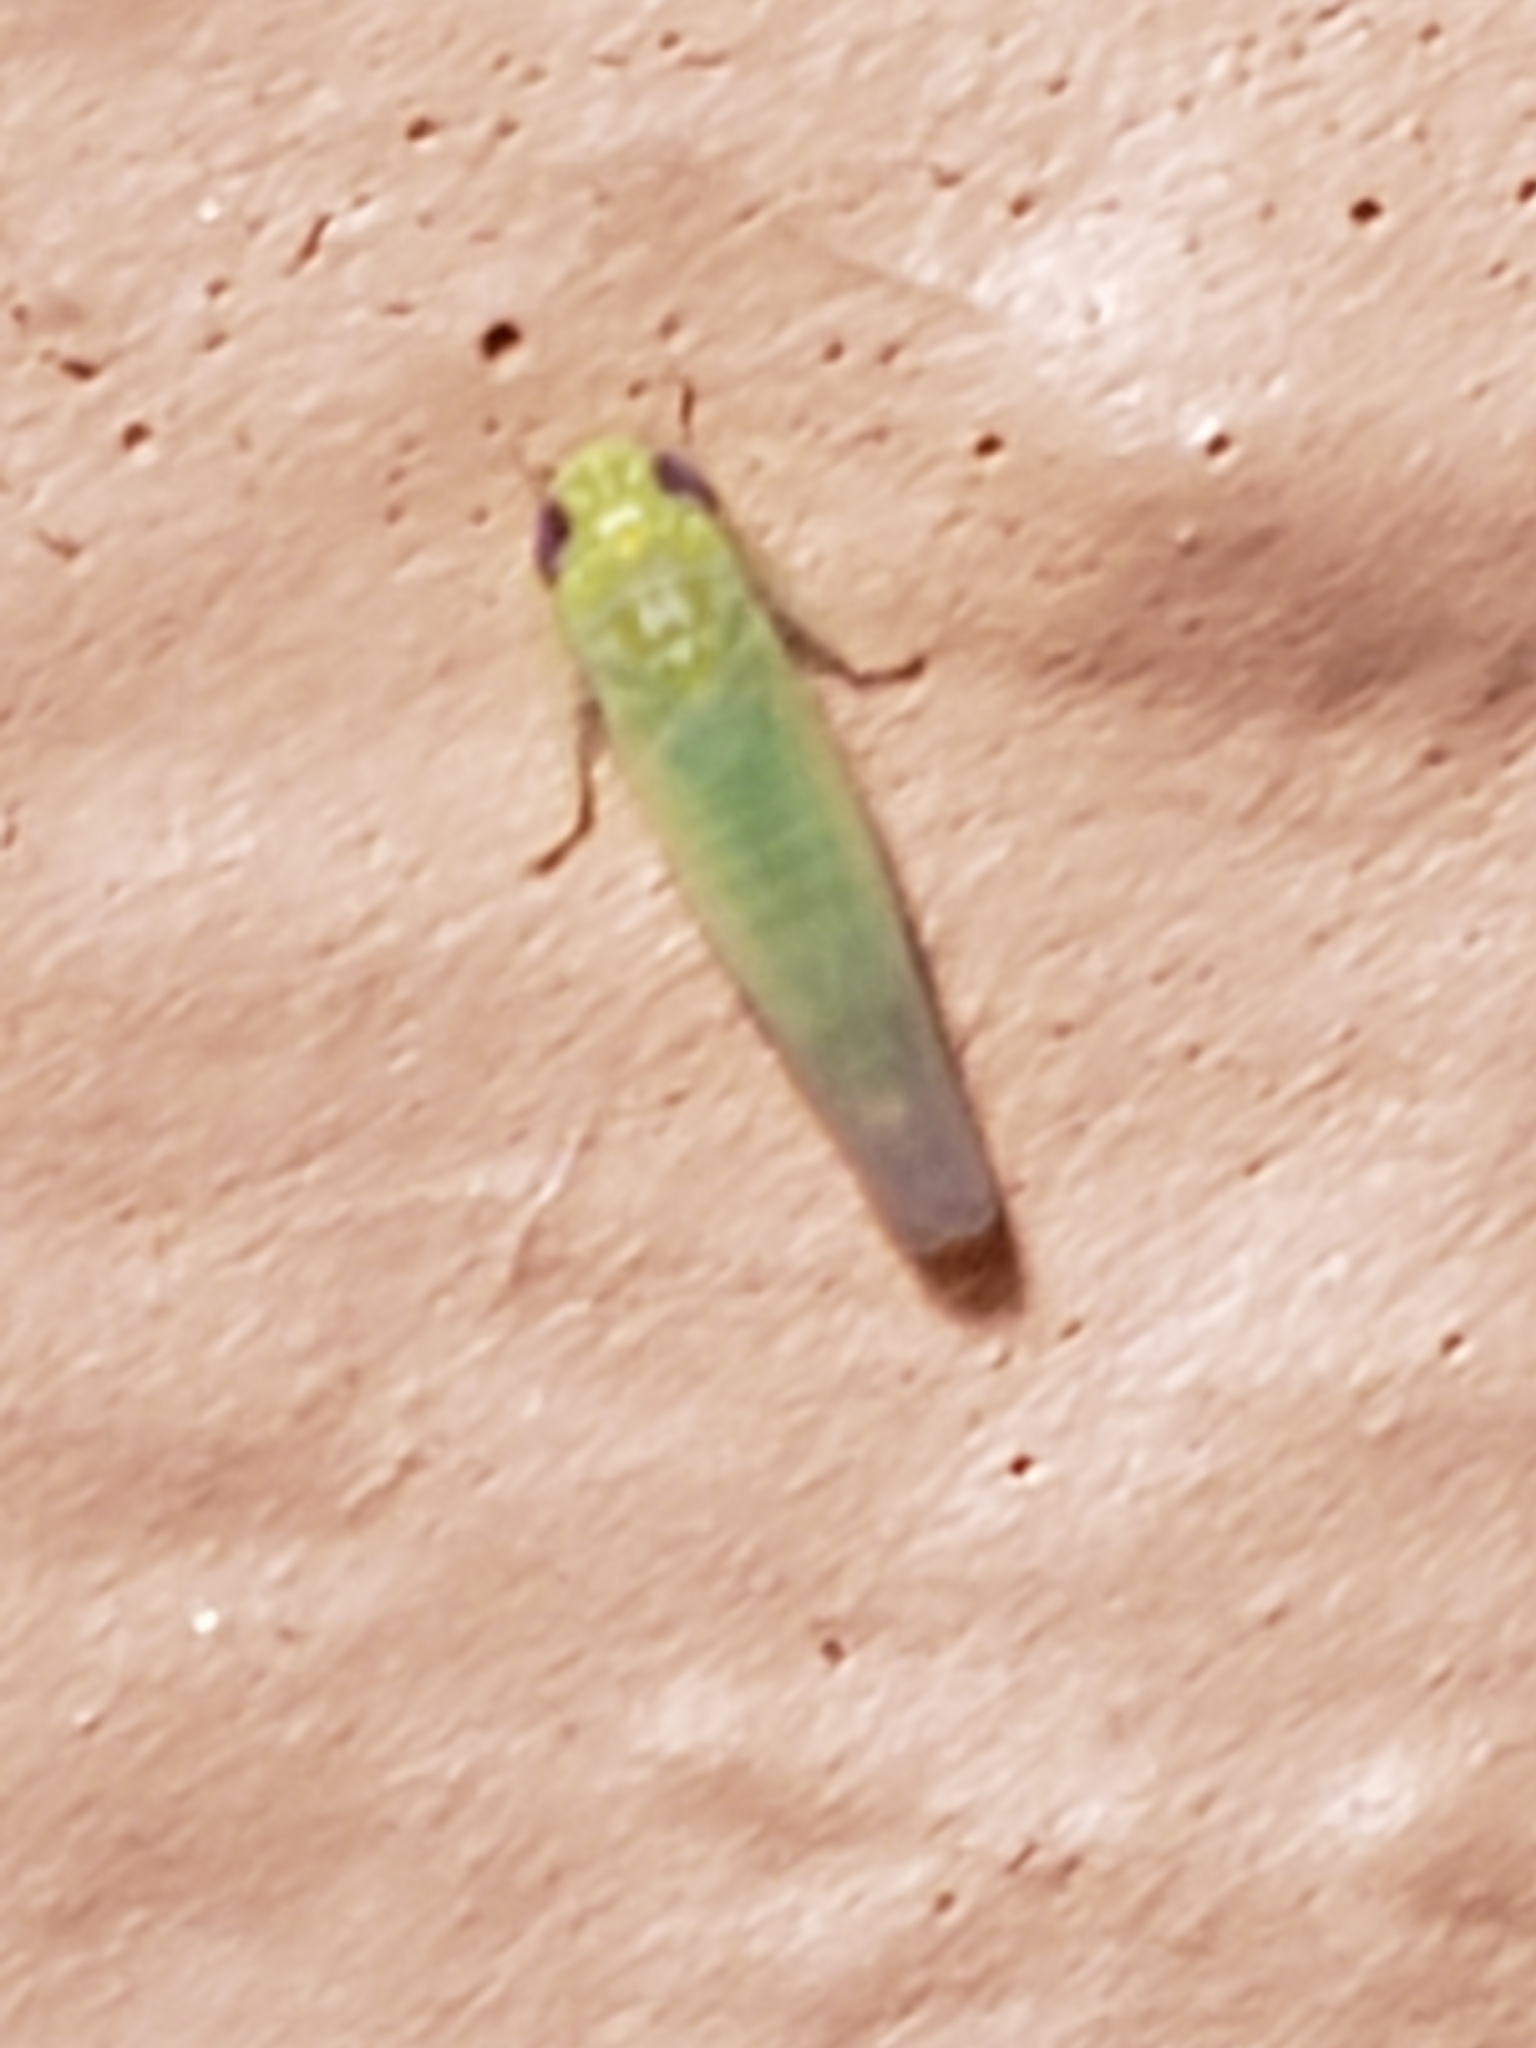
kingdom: Animalia
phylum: Arthropoda
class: Insecta
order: Hemiptera
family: Cicadellidae
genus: Empoasca
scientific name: Empoasca fabae
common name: Potato leafhopper
